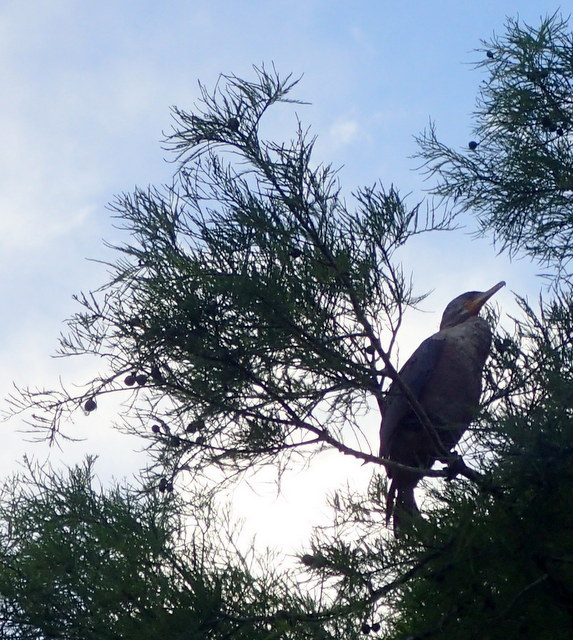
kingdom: Animalia
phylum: Chordata
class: Aves
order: Suliformes
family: Phalacrocoracidae
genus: Phalacrocorax
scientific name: Phalacrocorax auritus
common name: Double-crested cormorant
